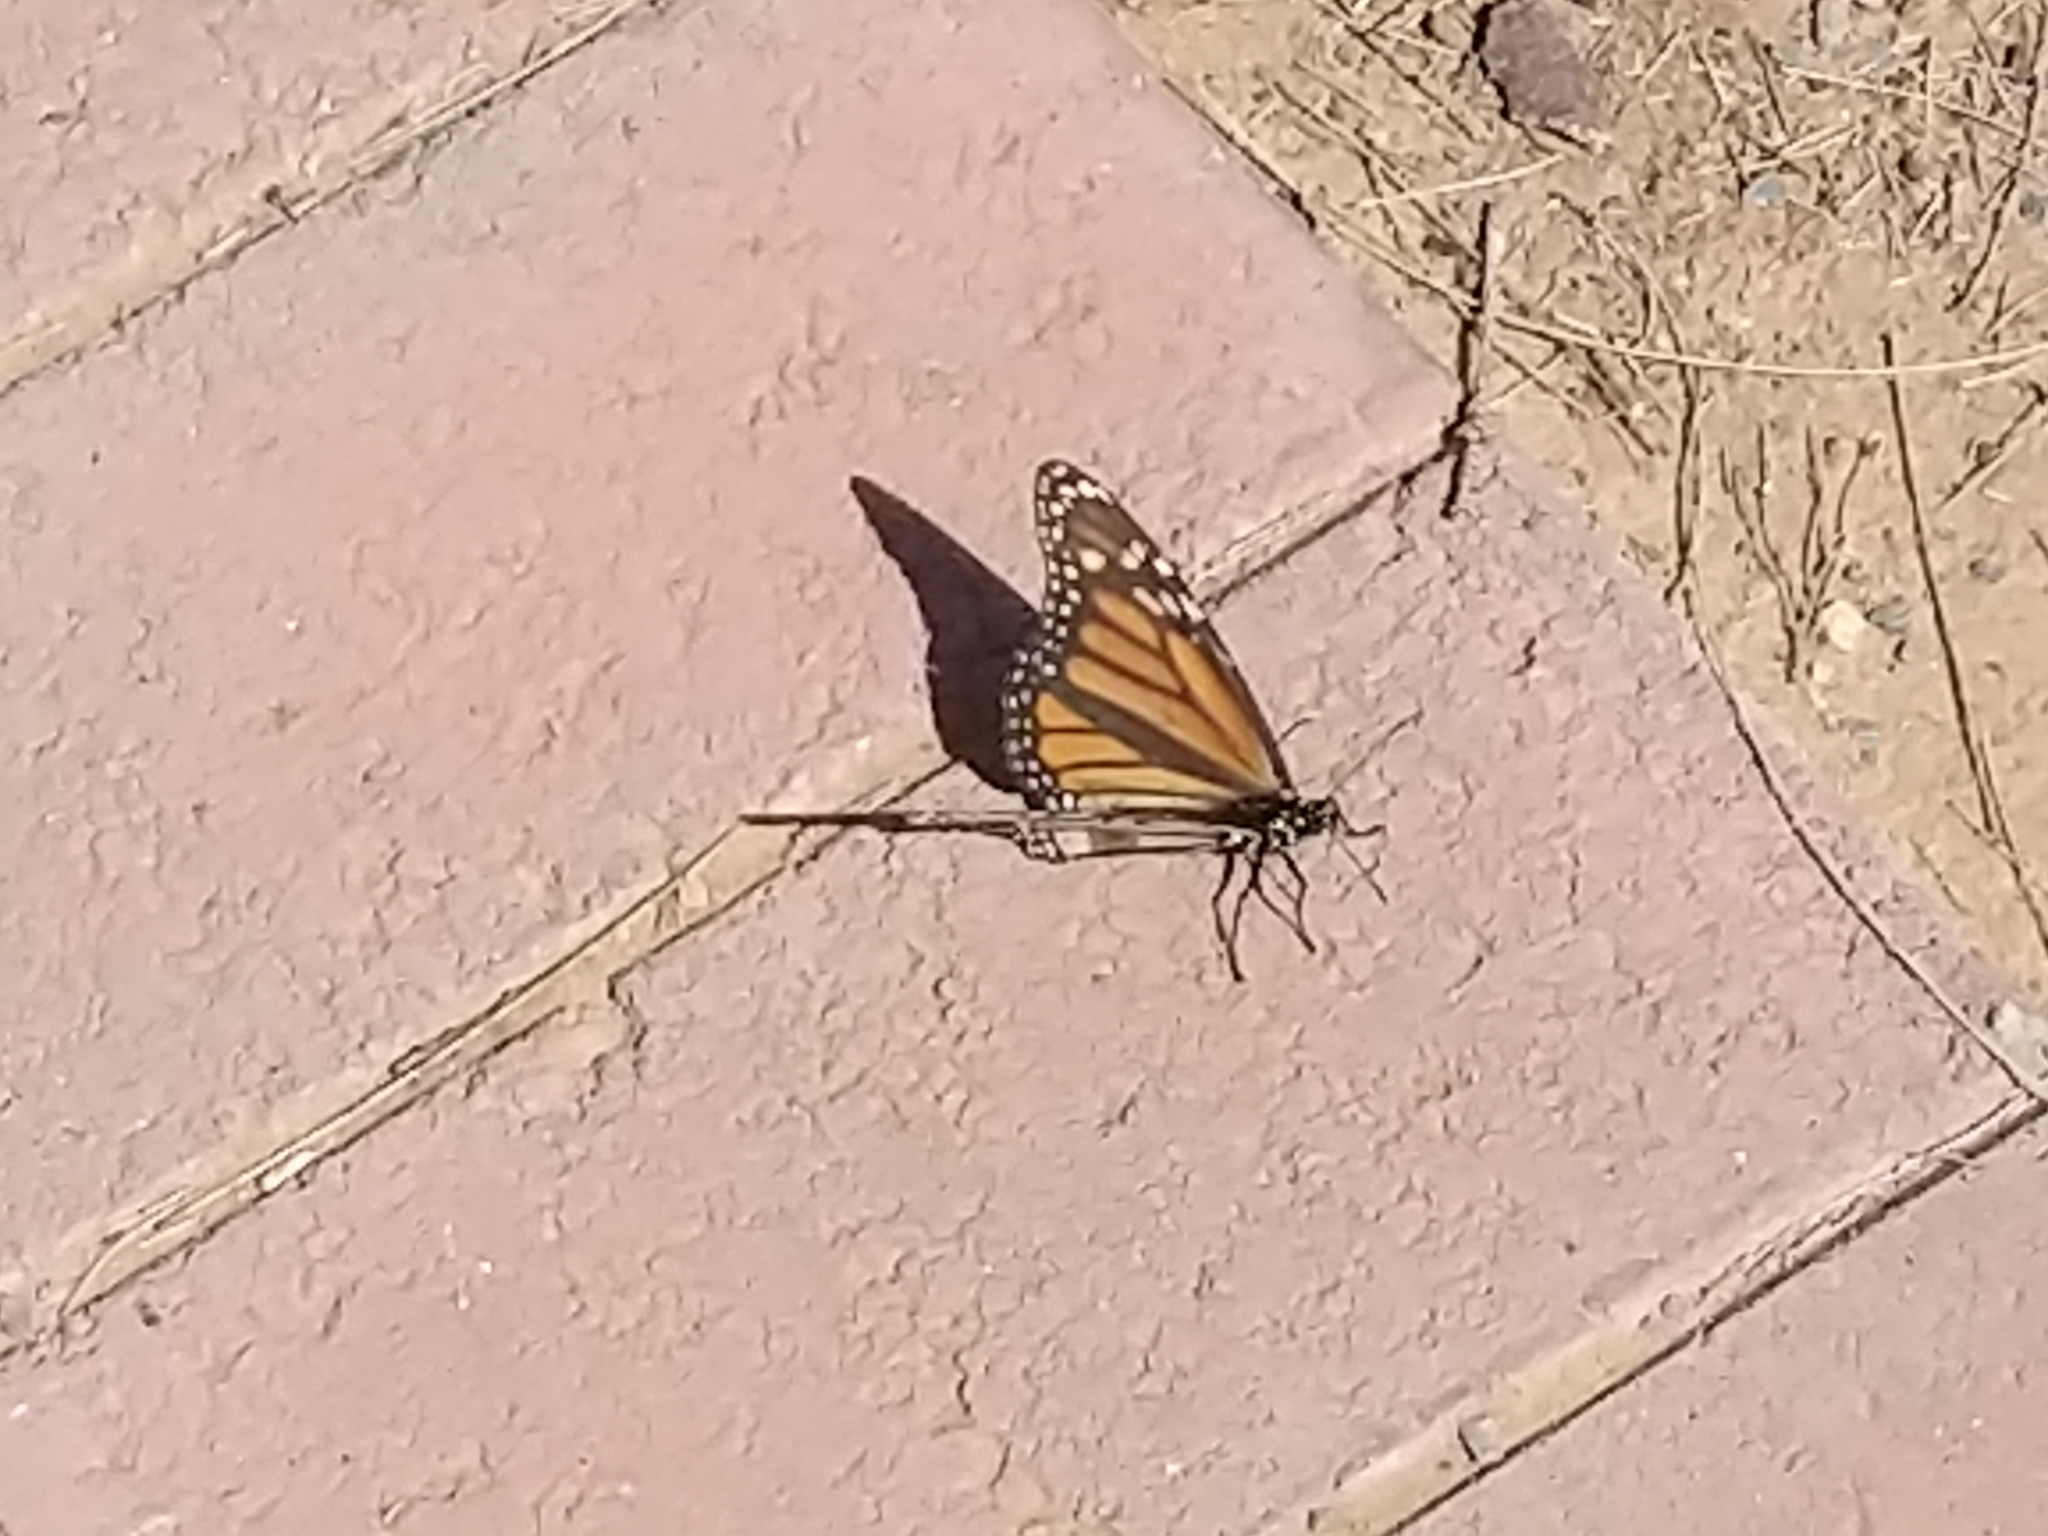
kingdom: Animalia
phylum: Arthropoda
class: Insecta
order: Lepidoptera
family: Nymphalidae
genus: Danaus
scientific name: Danaus plexippus
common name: Monarch
